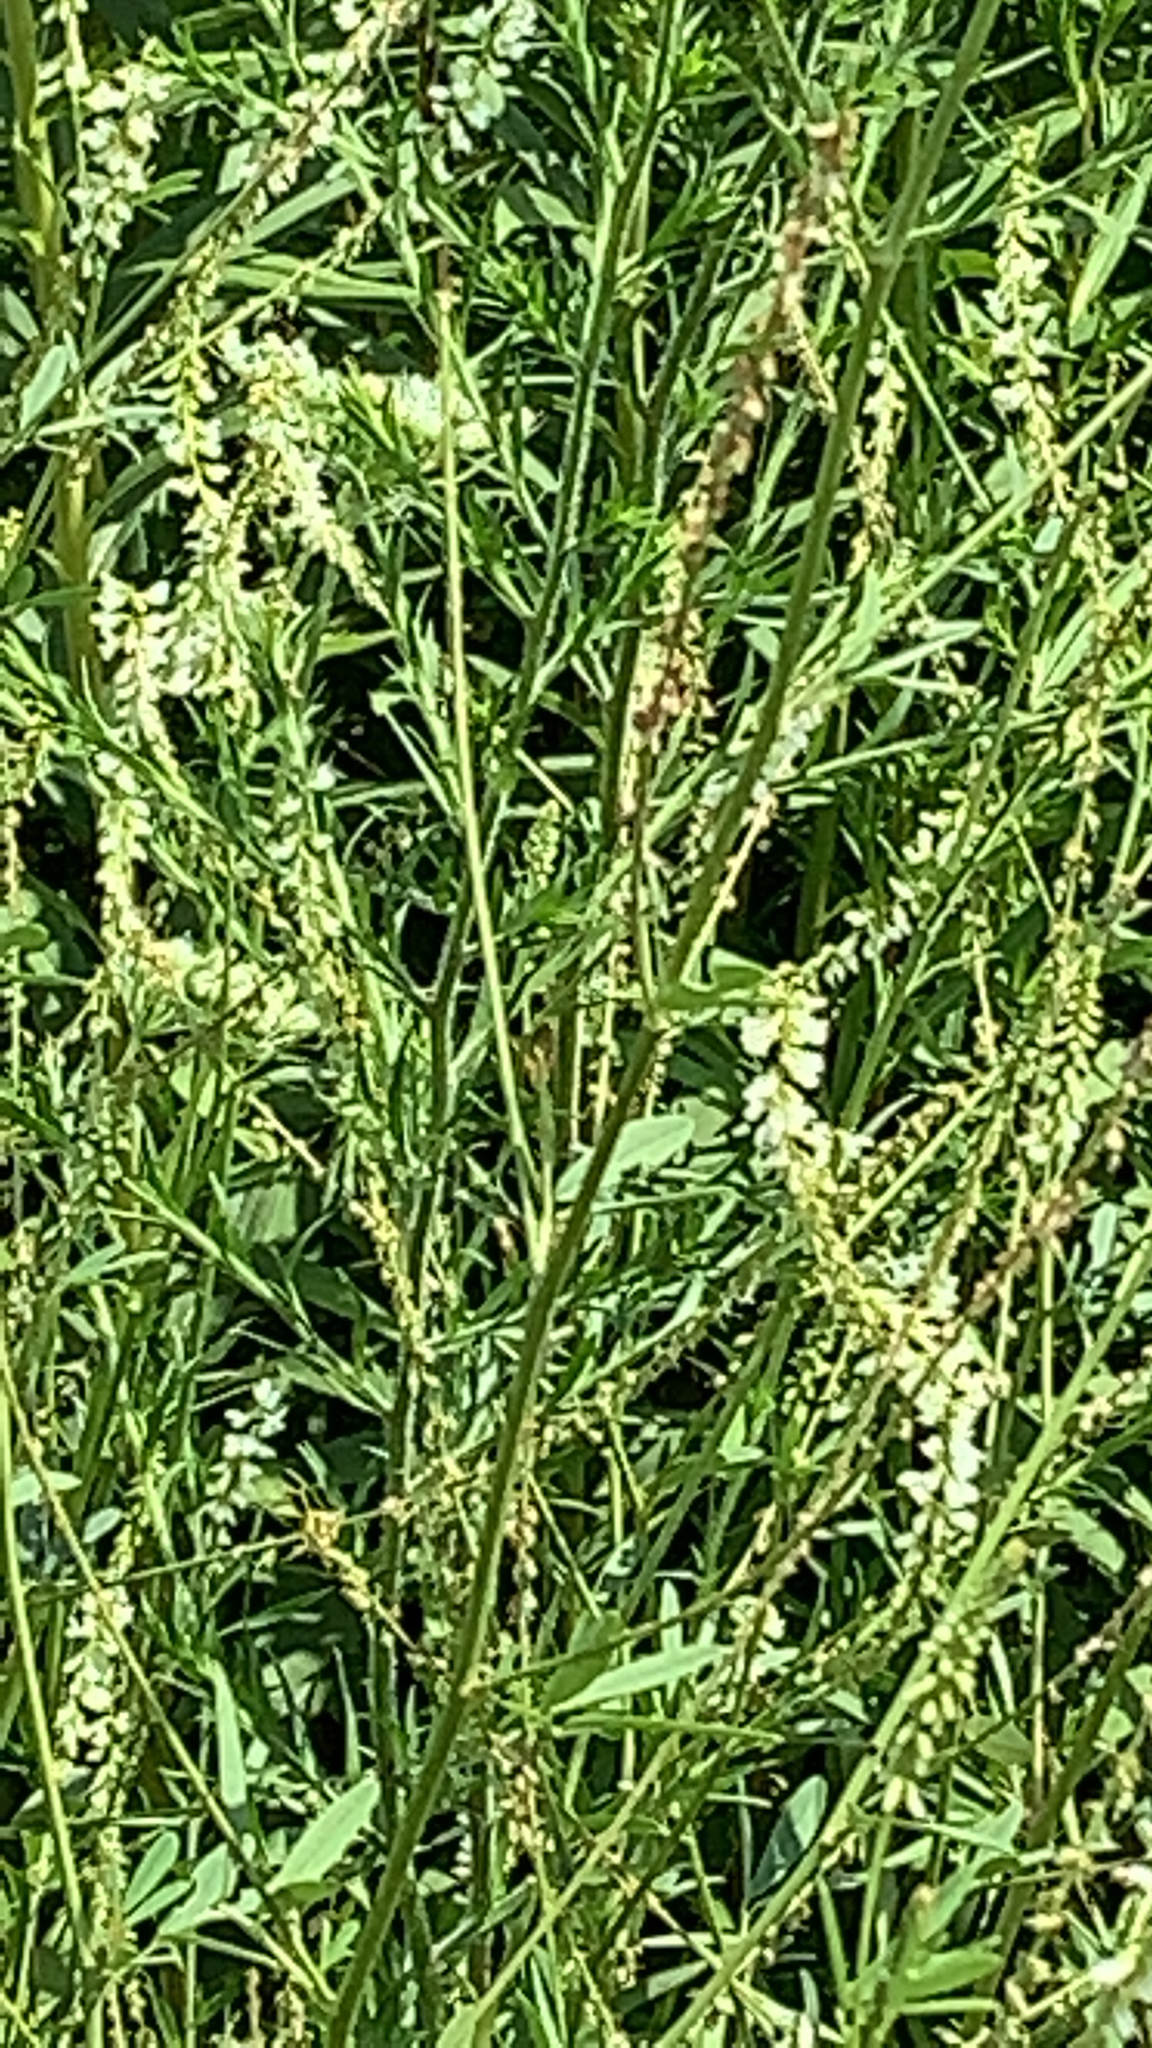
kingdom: Plantae
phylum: Tracheophyta
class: Magnoliopsida
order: Fabales
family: Fabaceae
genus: Melilotus
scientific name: Melilotus albus
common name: White melilot
